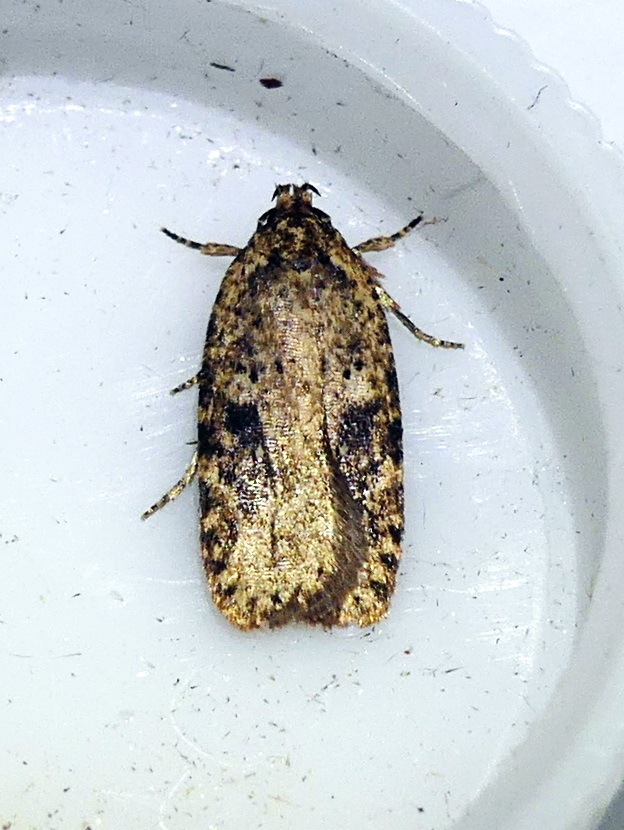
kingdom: Animalia
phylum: Arthropoda
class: Insecta
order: Lepidoptera
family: Depressariidae
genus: Agonopterix
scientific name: Agonopterix pulvipennella
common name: Goldenrod leafffolder
